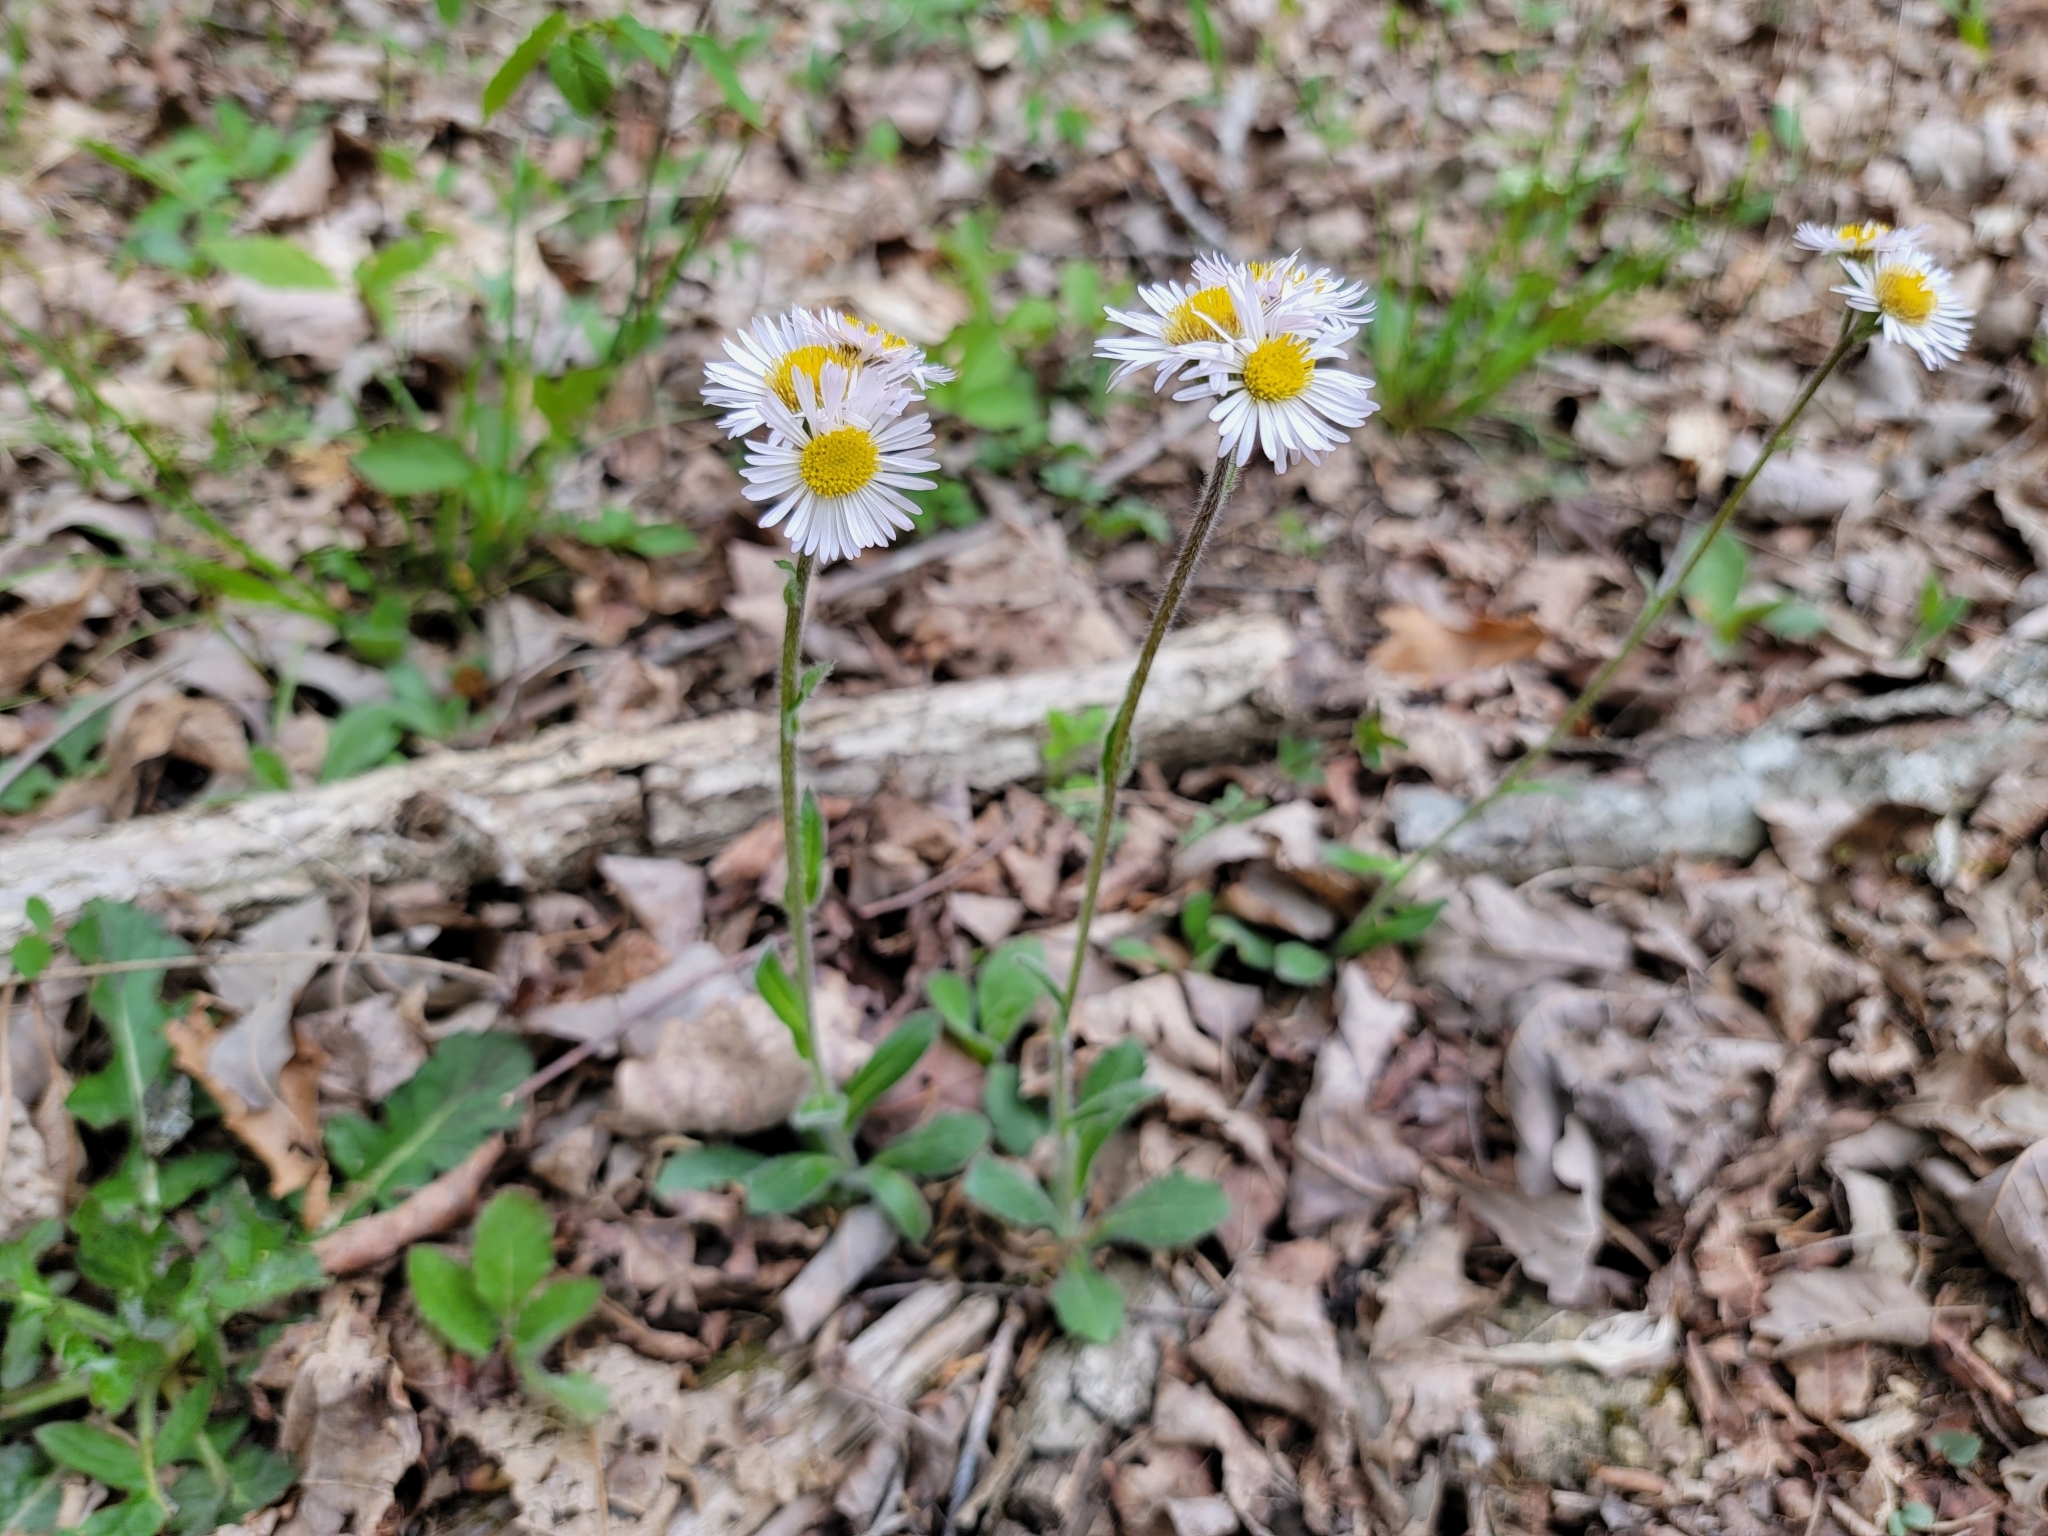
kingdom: Plantae
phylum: Tracheophyta
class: Magnoliopsida
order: Asterales
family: Asteraceae
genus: Erigeron
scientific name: Erigeron pulchellus
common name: Hairy fleabane
